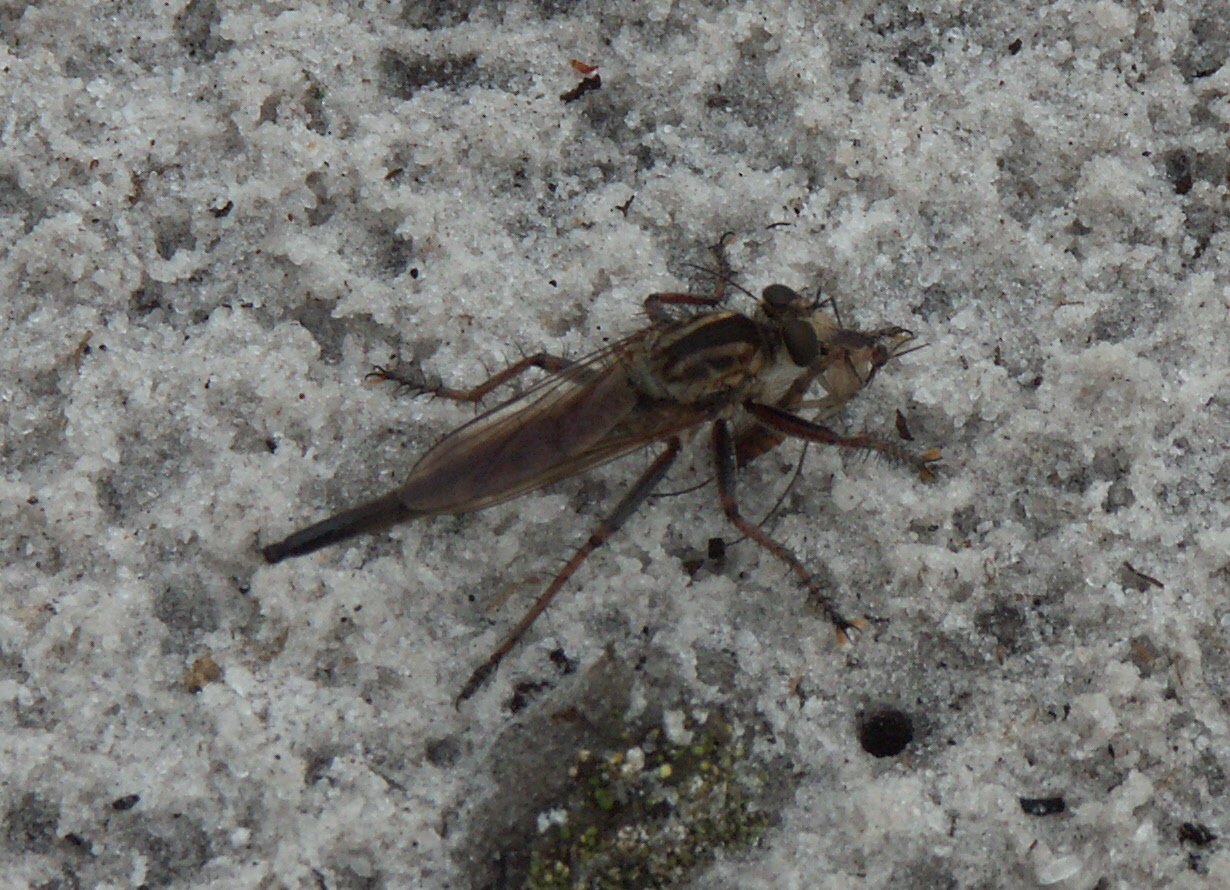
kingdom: Animalia
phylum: Arthropoda
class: Insecta
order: Diptera
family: Asilidae
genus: Proctacanthus
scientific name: Proctacanthus brevipennis
